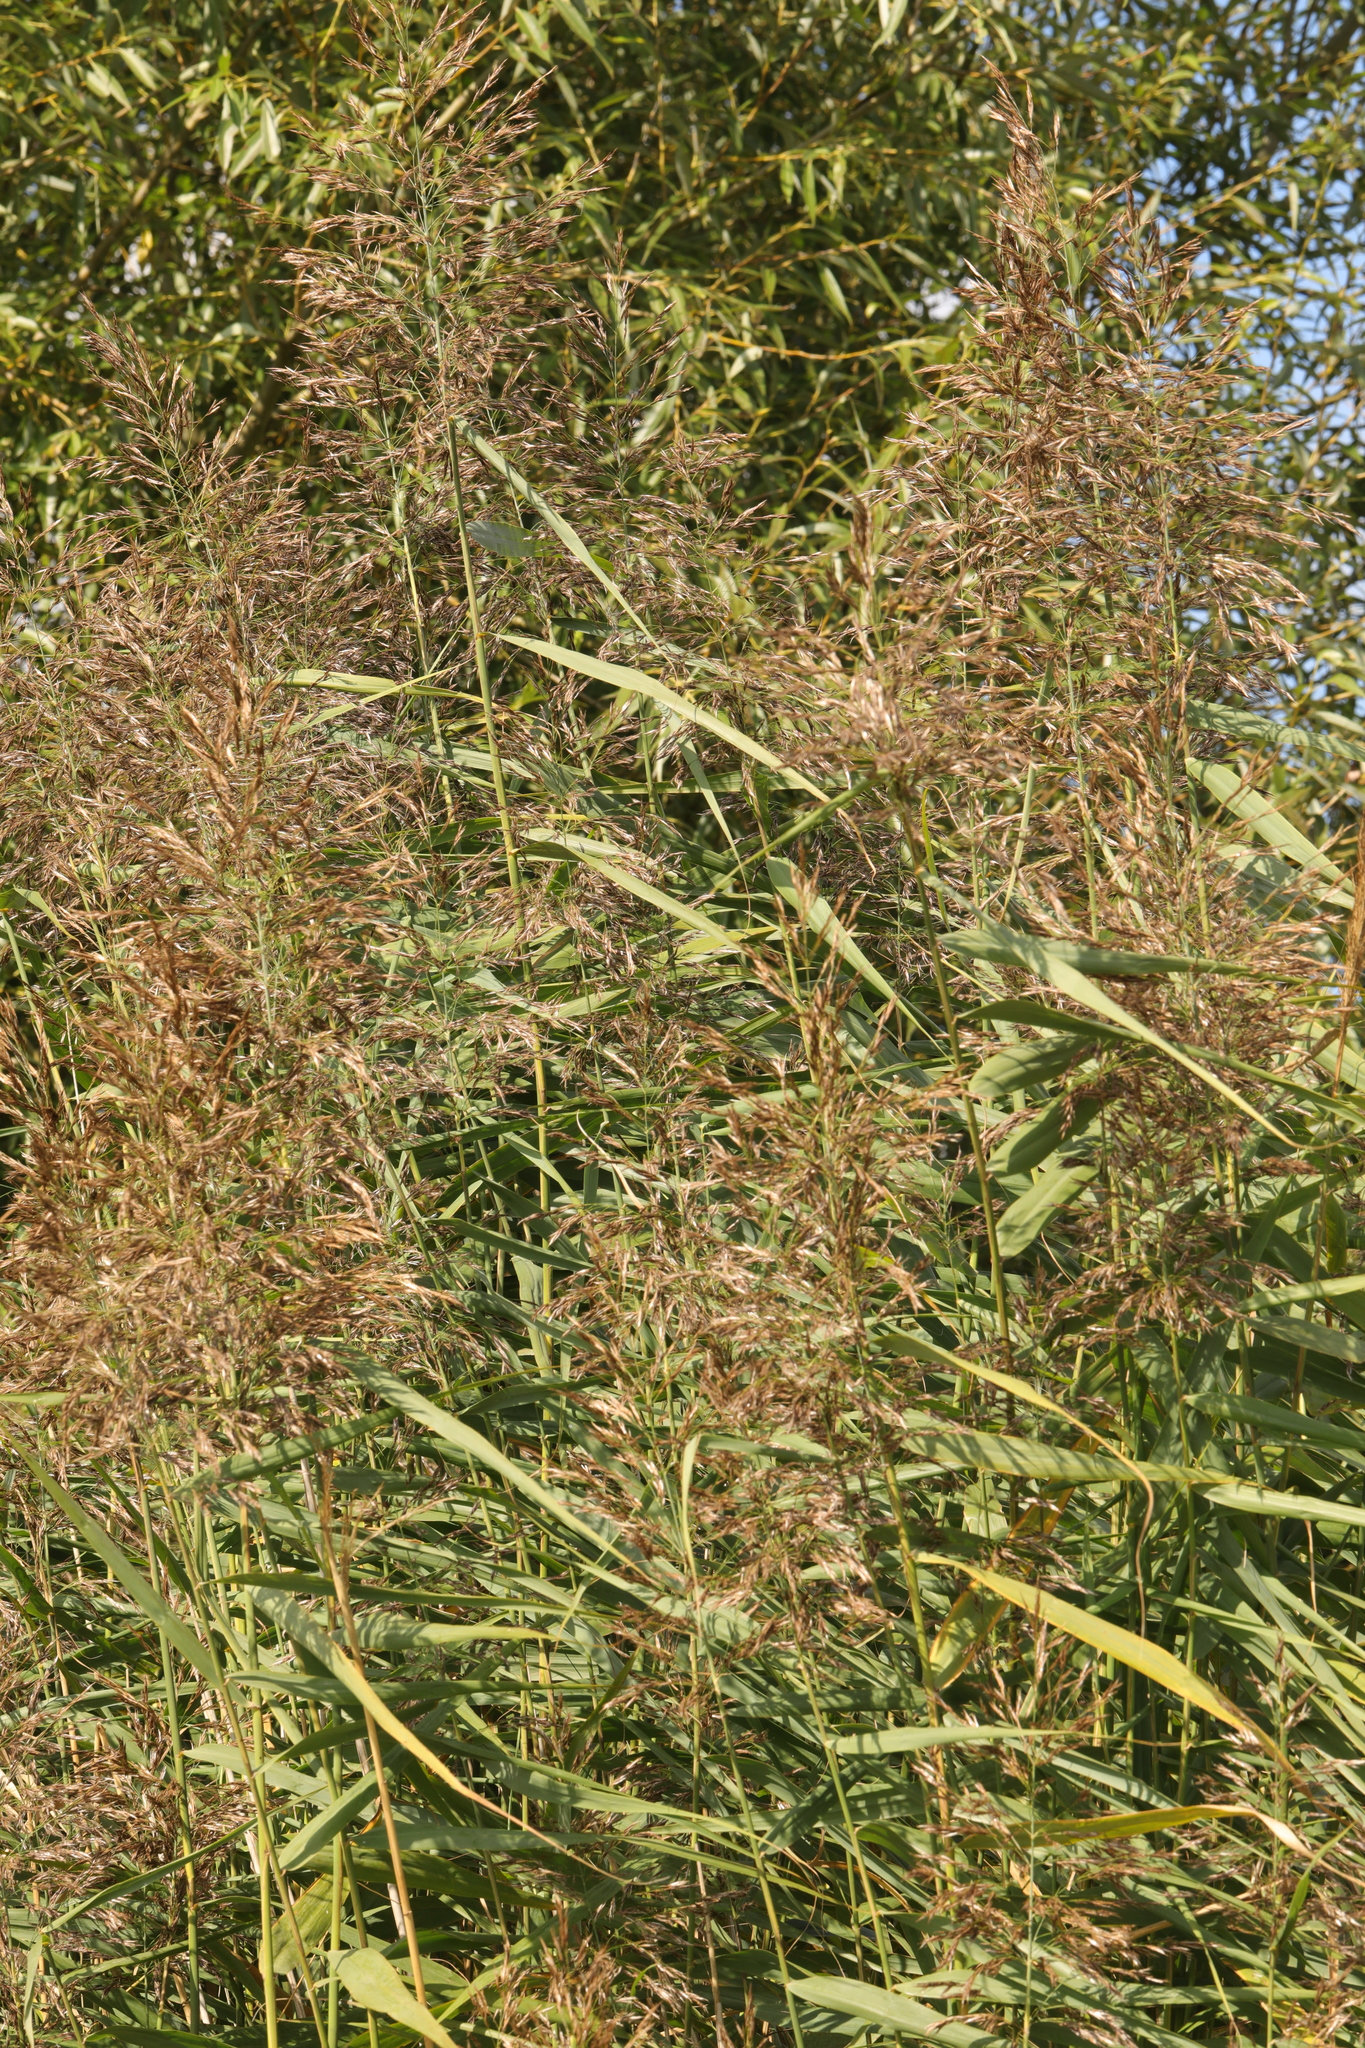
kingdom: Plantae
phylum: Tracheophyta
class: Liliopsida
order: Poales
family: Poaceae
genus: Phragmites
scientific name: Phragmites australis
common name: Common reed
